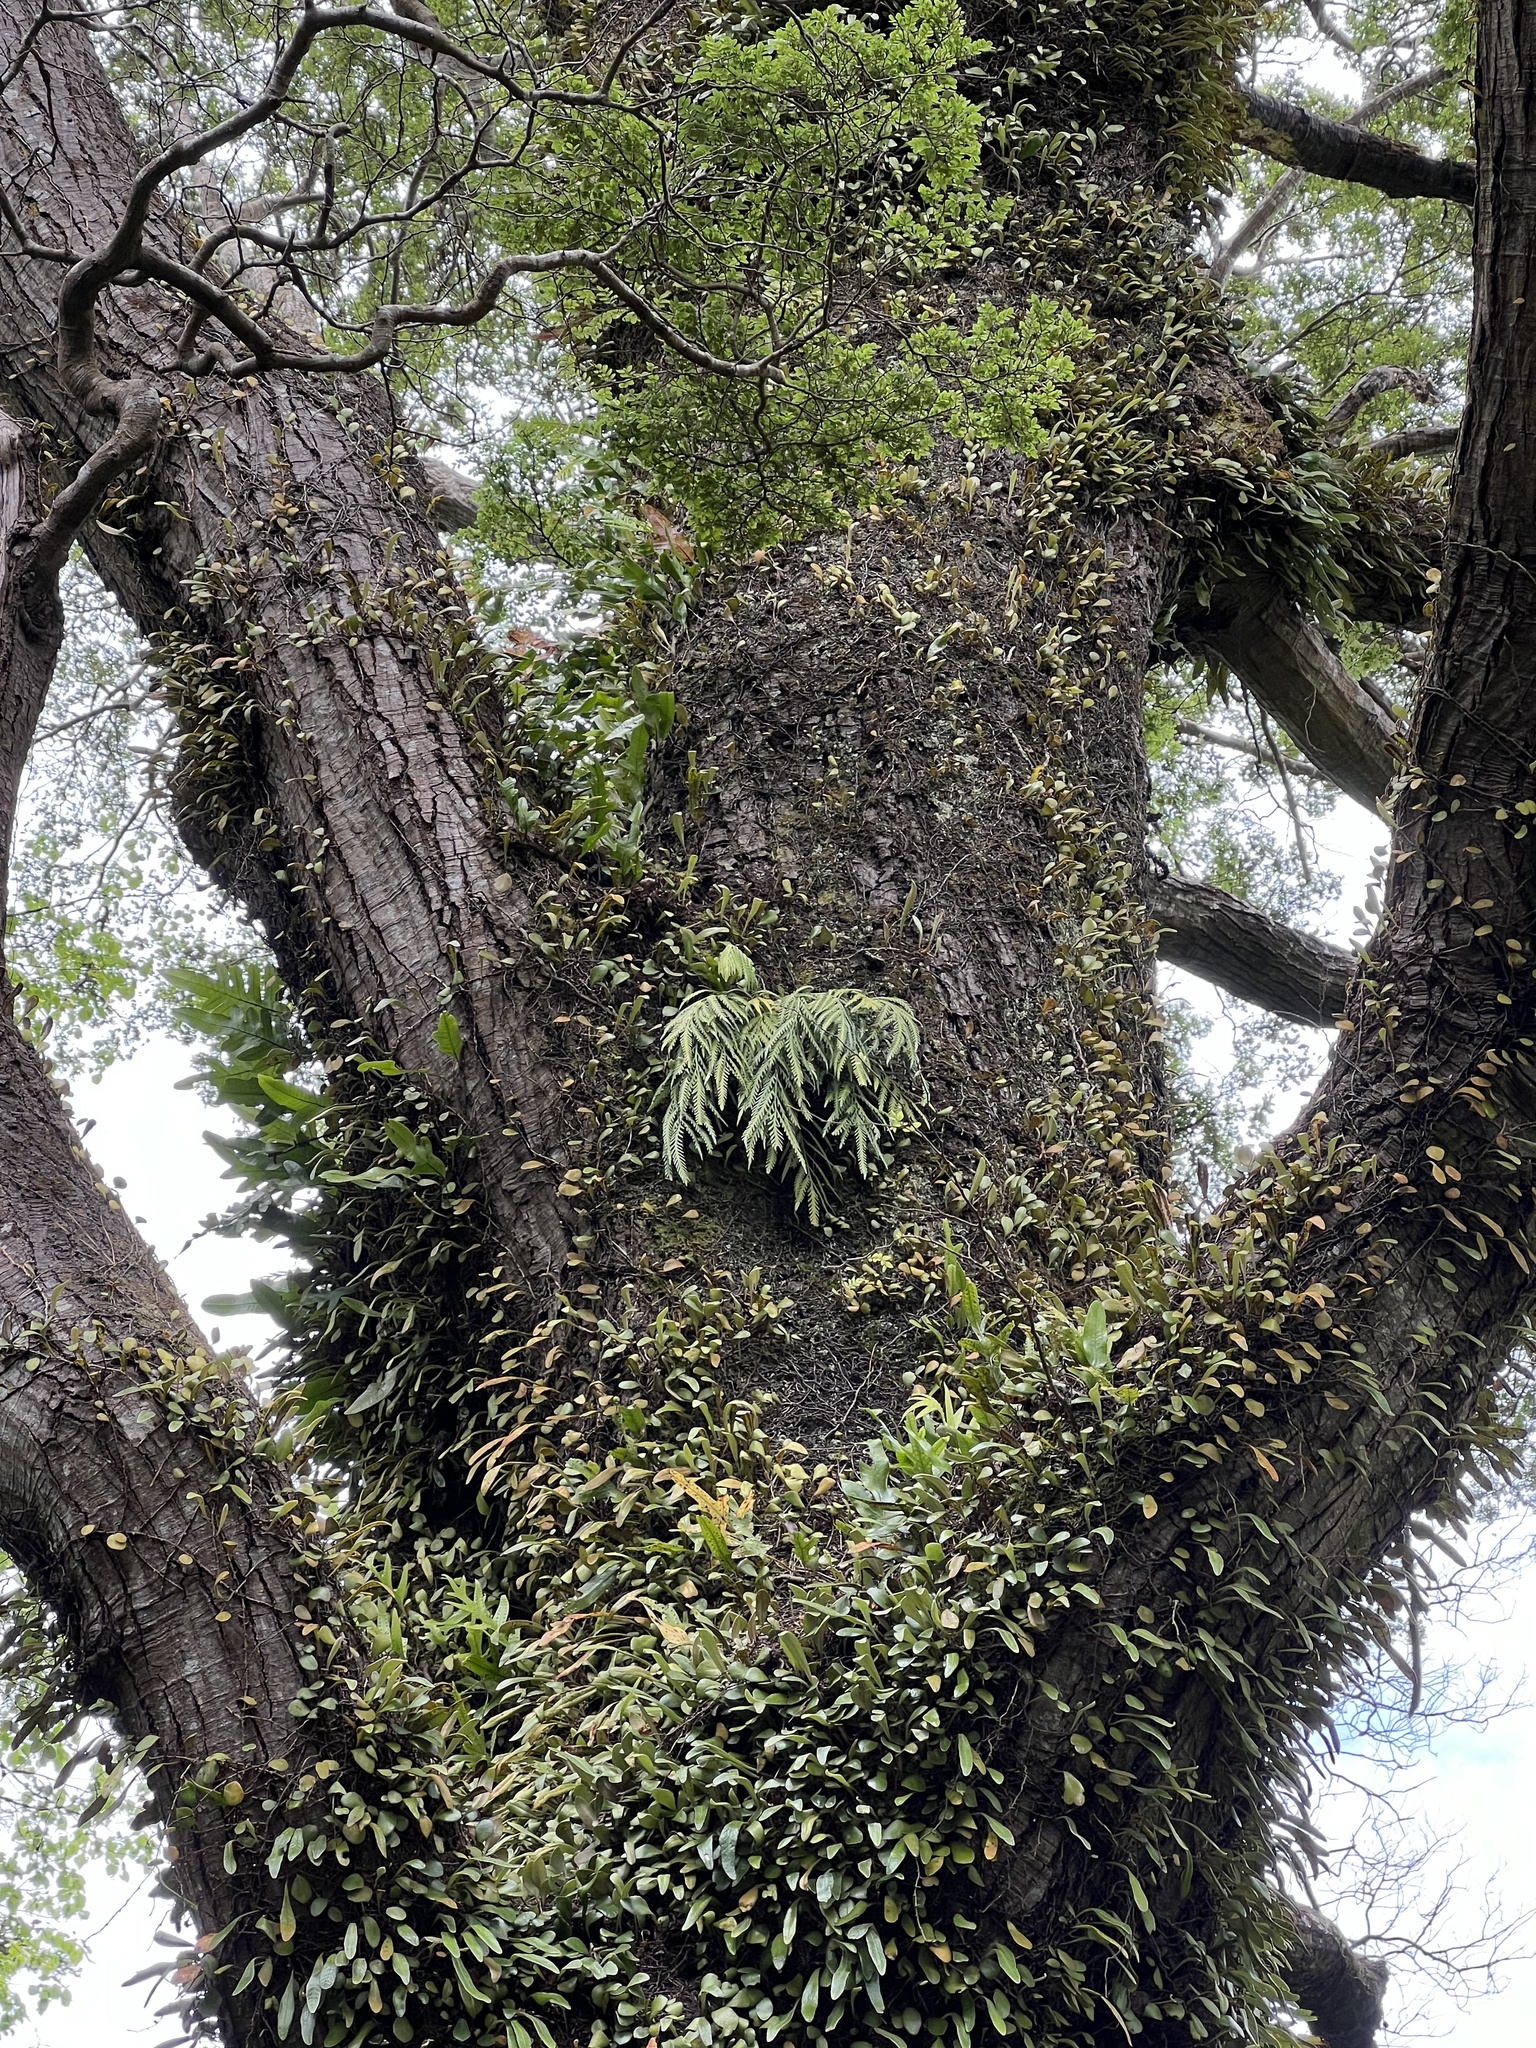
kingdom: Plantae
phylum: Tracheophyta
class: Polypodiopsida
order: Polypodiales
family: Aspleniaceae
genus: Asplenium
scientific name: Asplenium flaccidum
